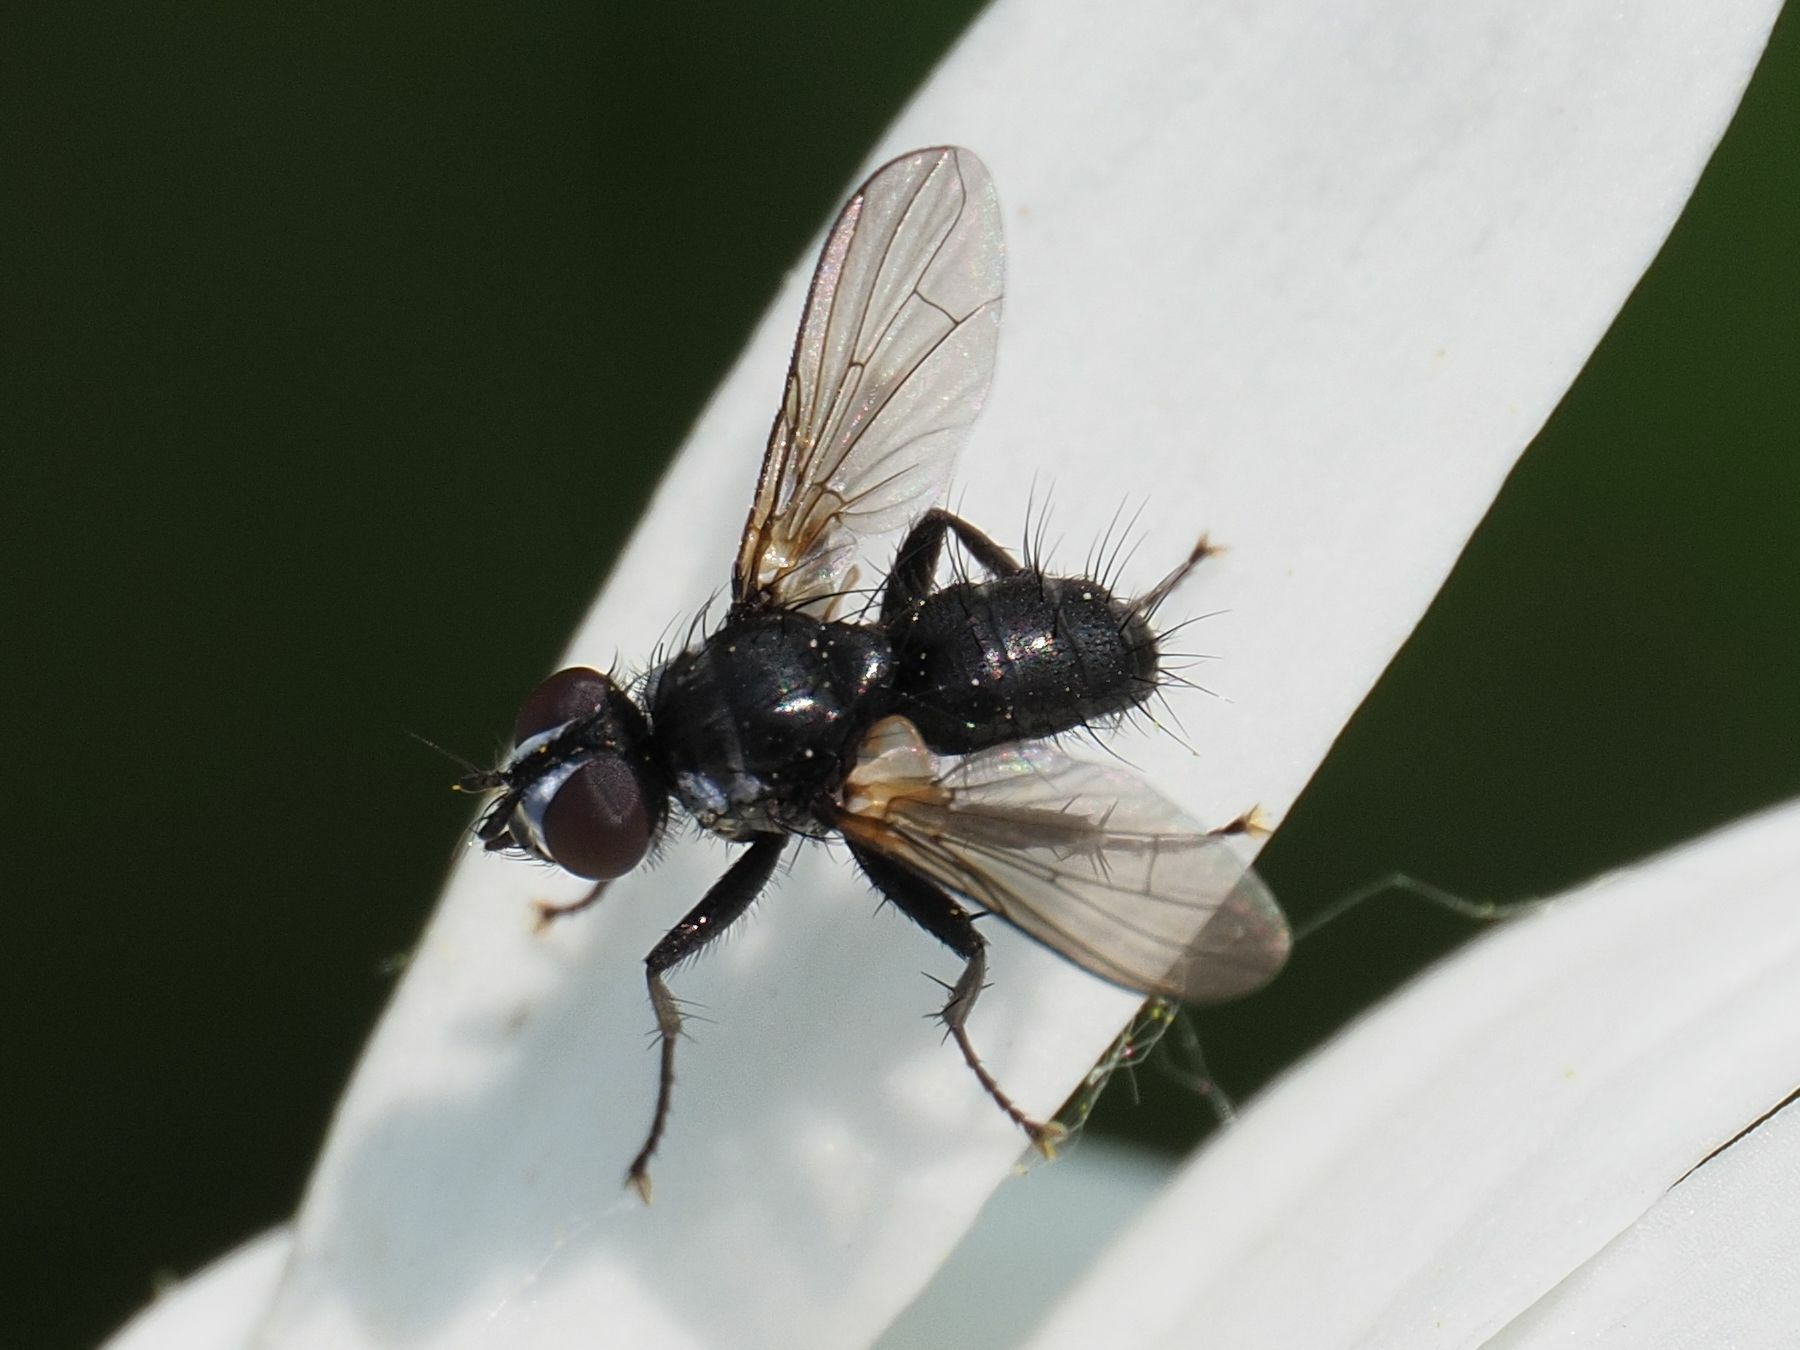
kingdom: Animalia
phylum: Arthropoda
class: Insecta
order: Diptera
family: Tachinidae
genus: Phania
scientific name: Phania funesta
